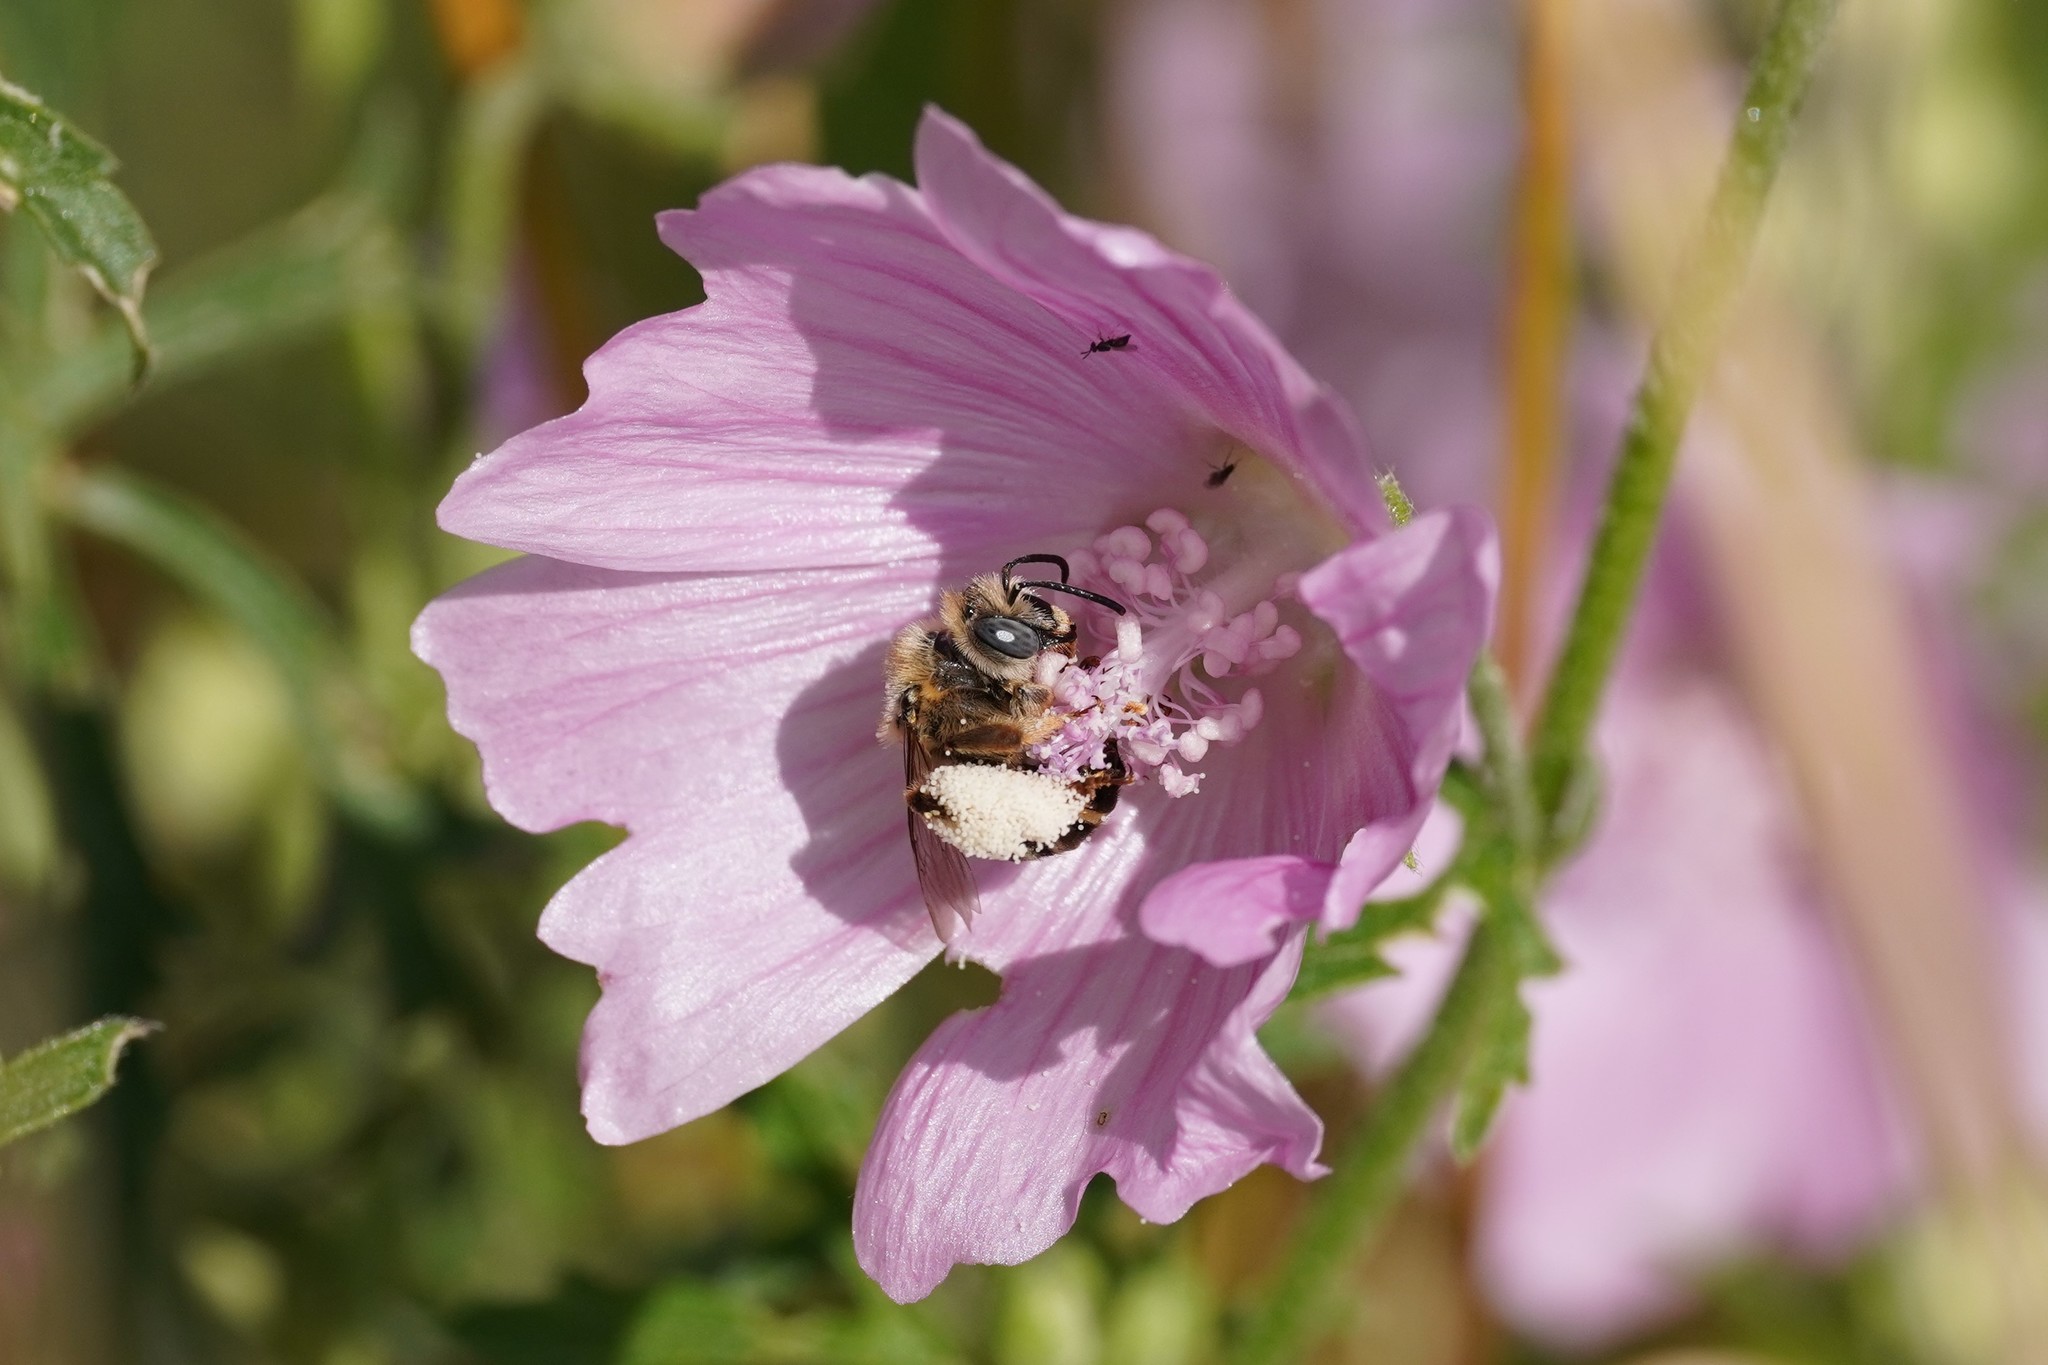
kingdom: Animalia
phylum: Arthropoda
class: Insecta
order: Hymenoptera
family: Apidae
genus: Tetralonia
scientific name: Tetralonia malvae
